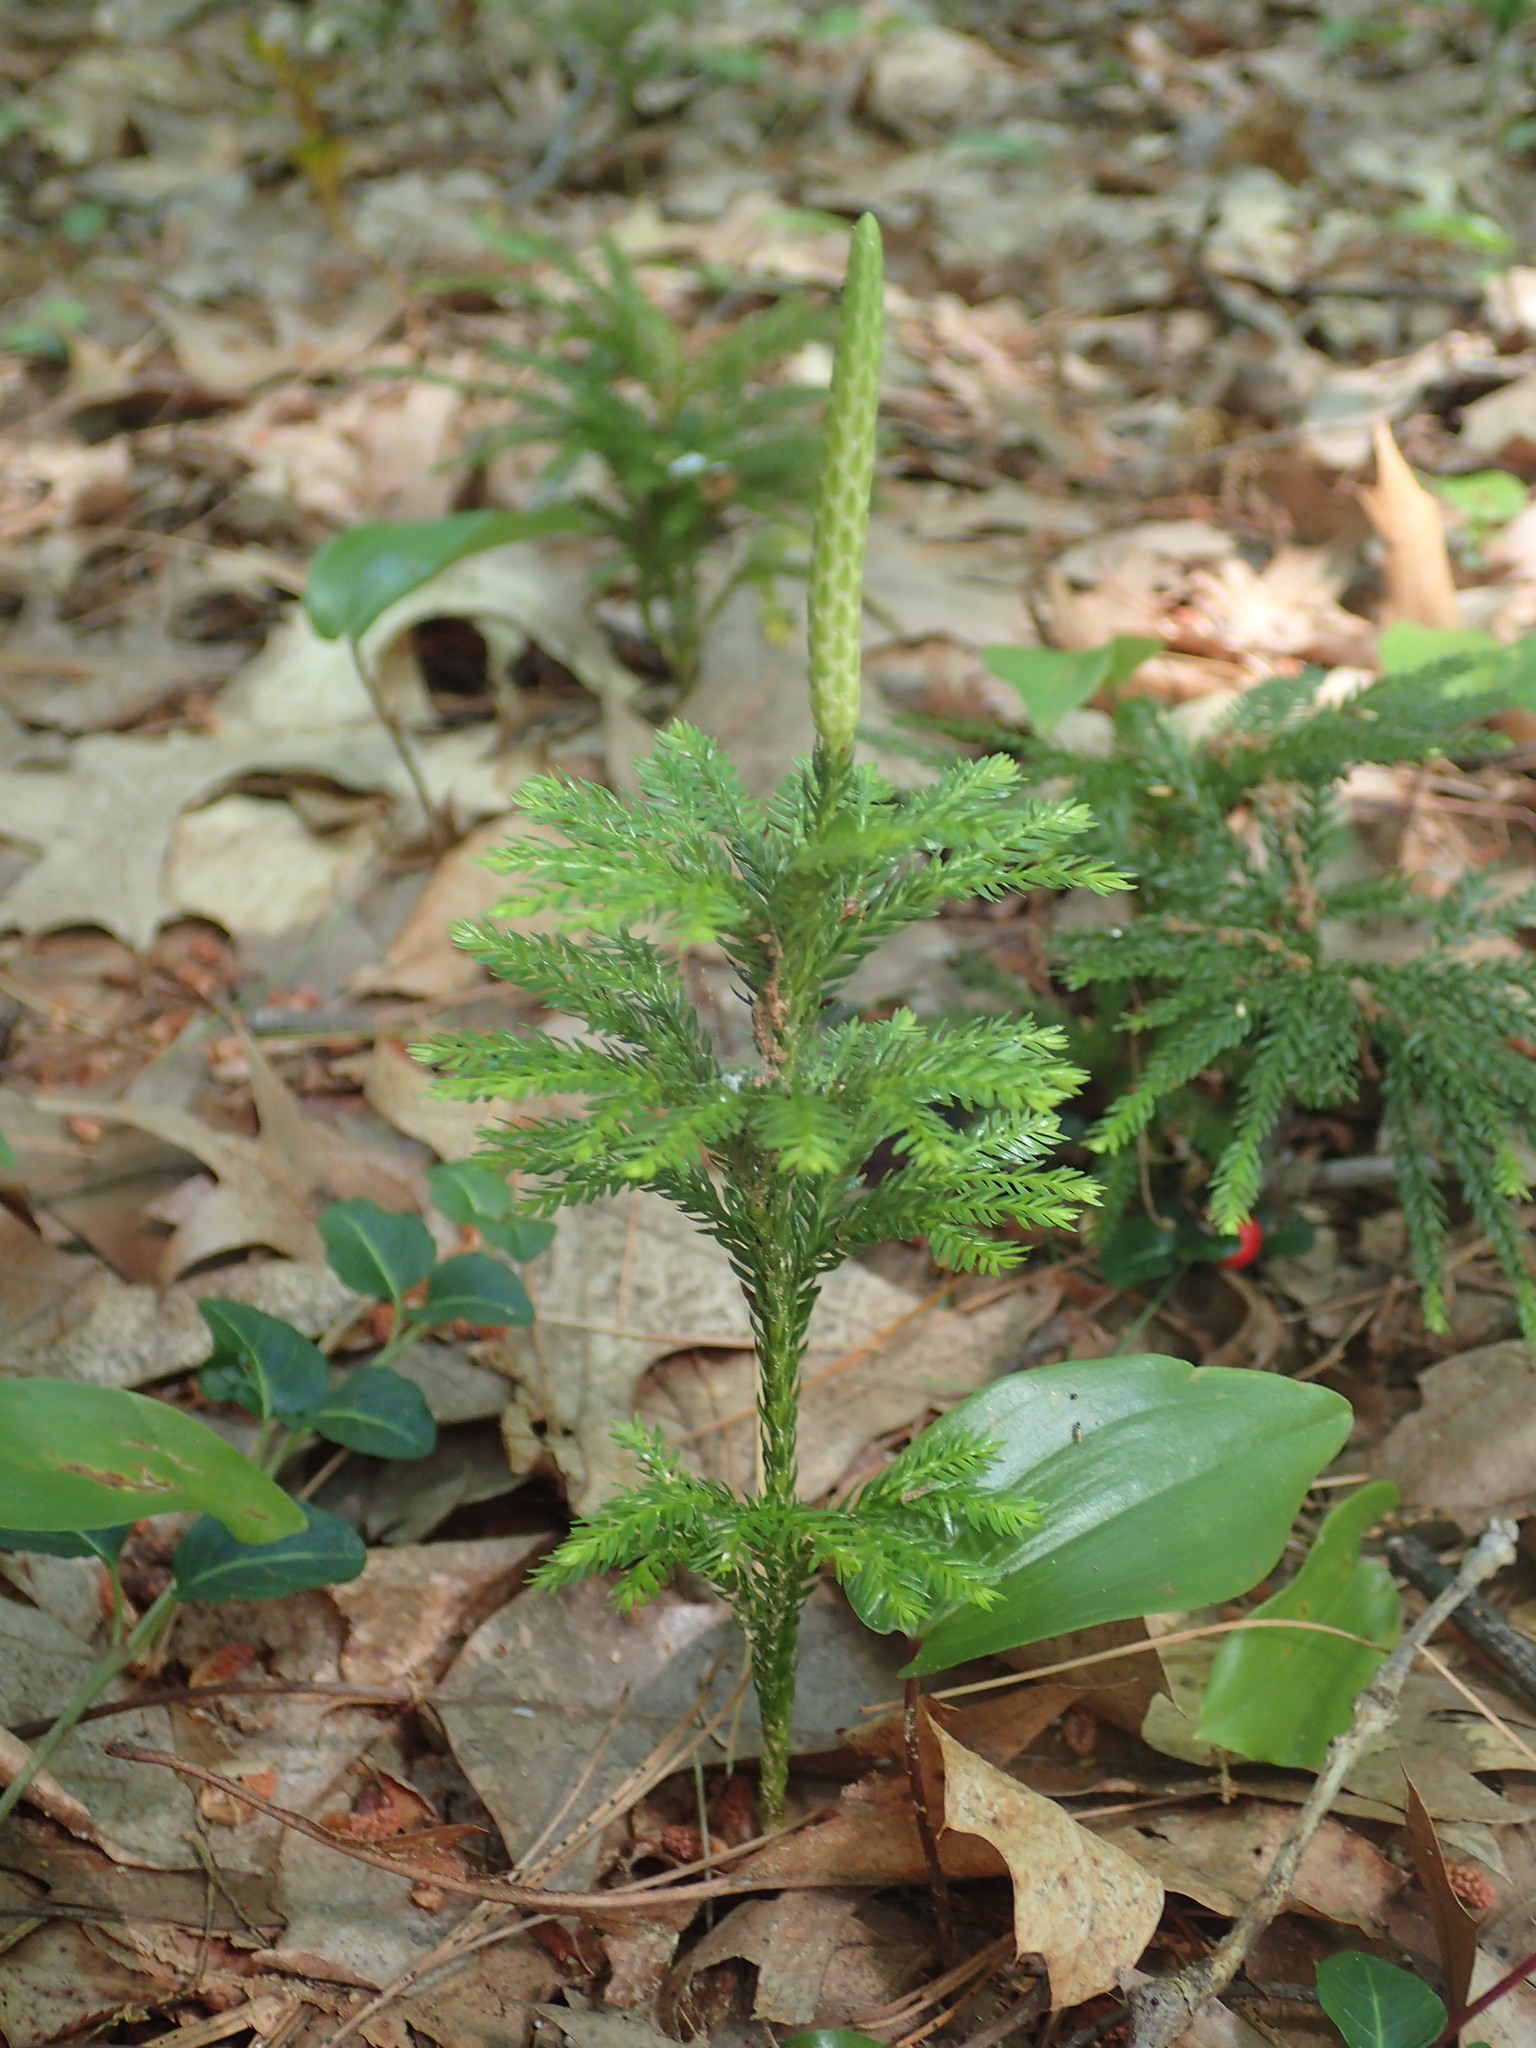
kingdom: Plantae
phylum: Tracheophyta
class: Lycopodiopsida
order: Lycopodiales
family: Lycopodiaceae
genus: Dendrolycopodium
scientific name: Dendrolycopodium obscurum
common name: Common ground-pine
